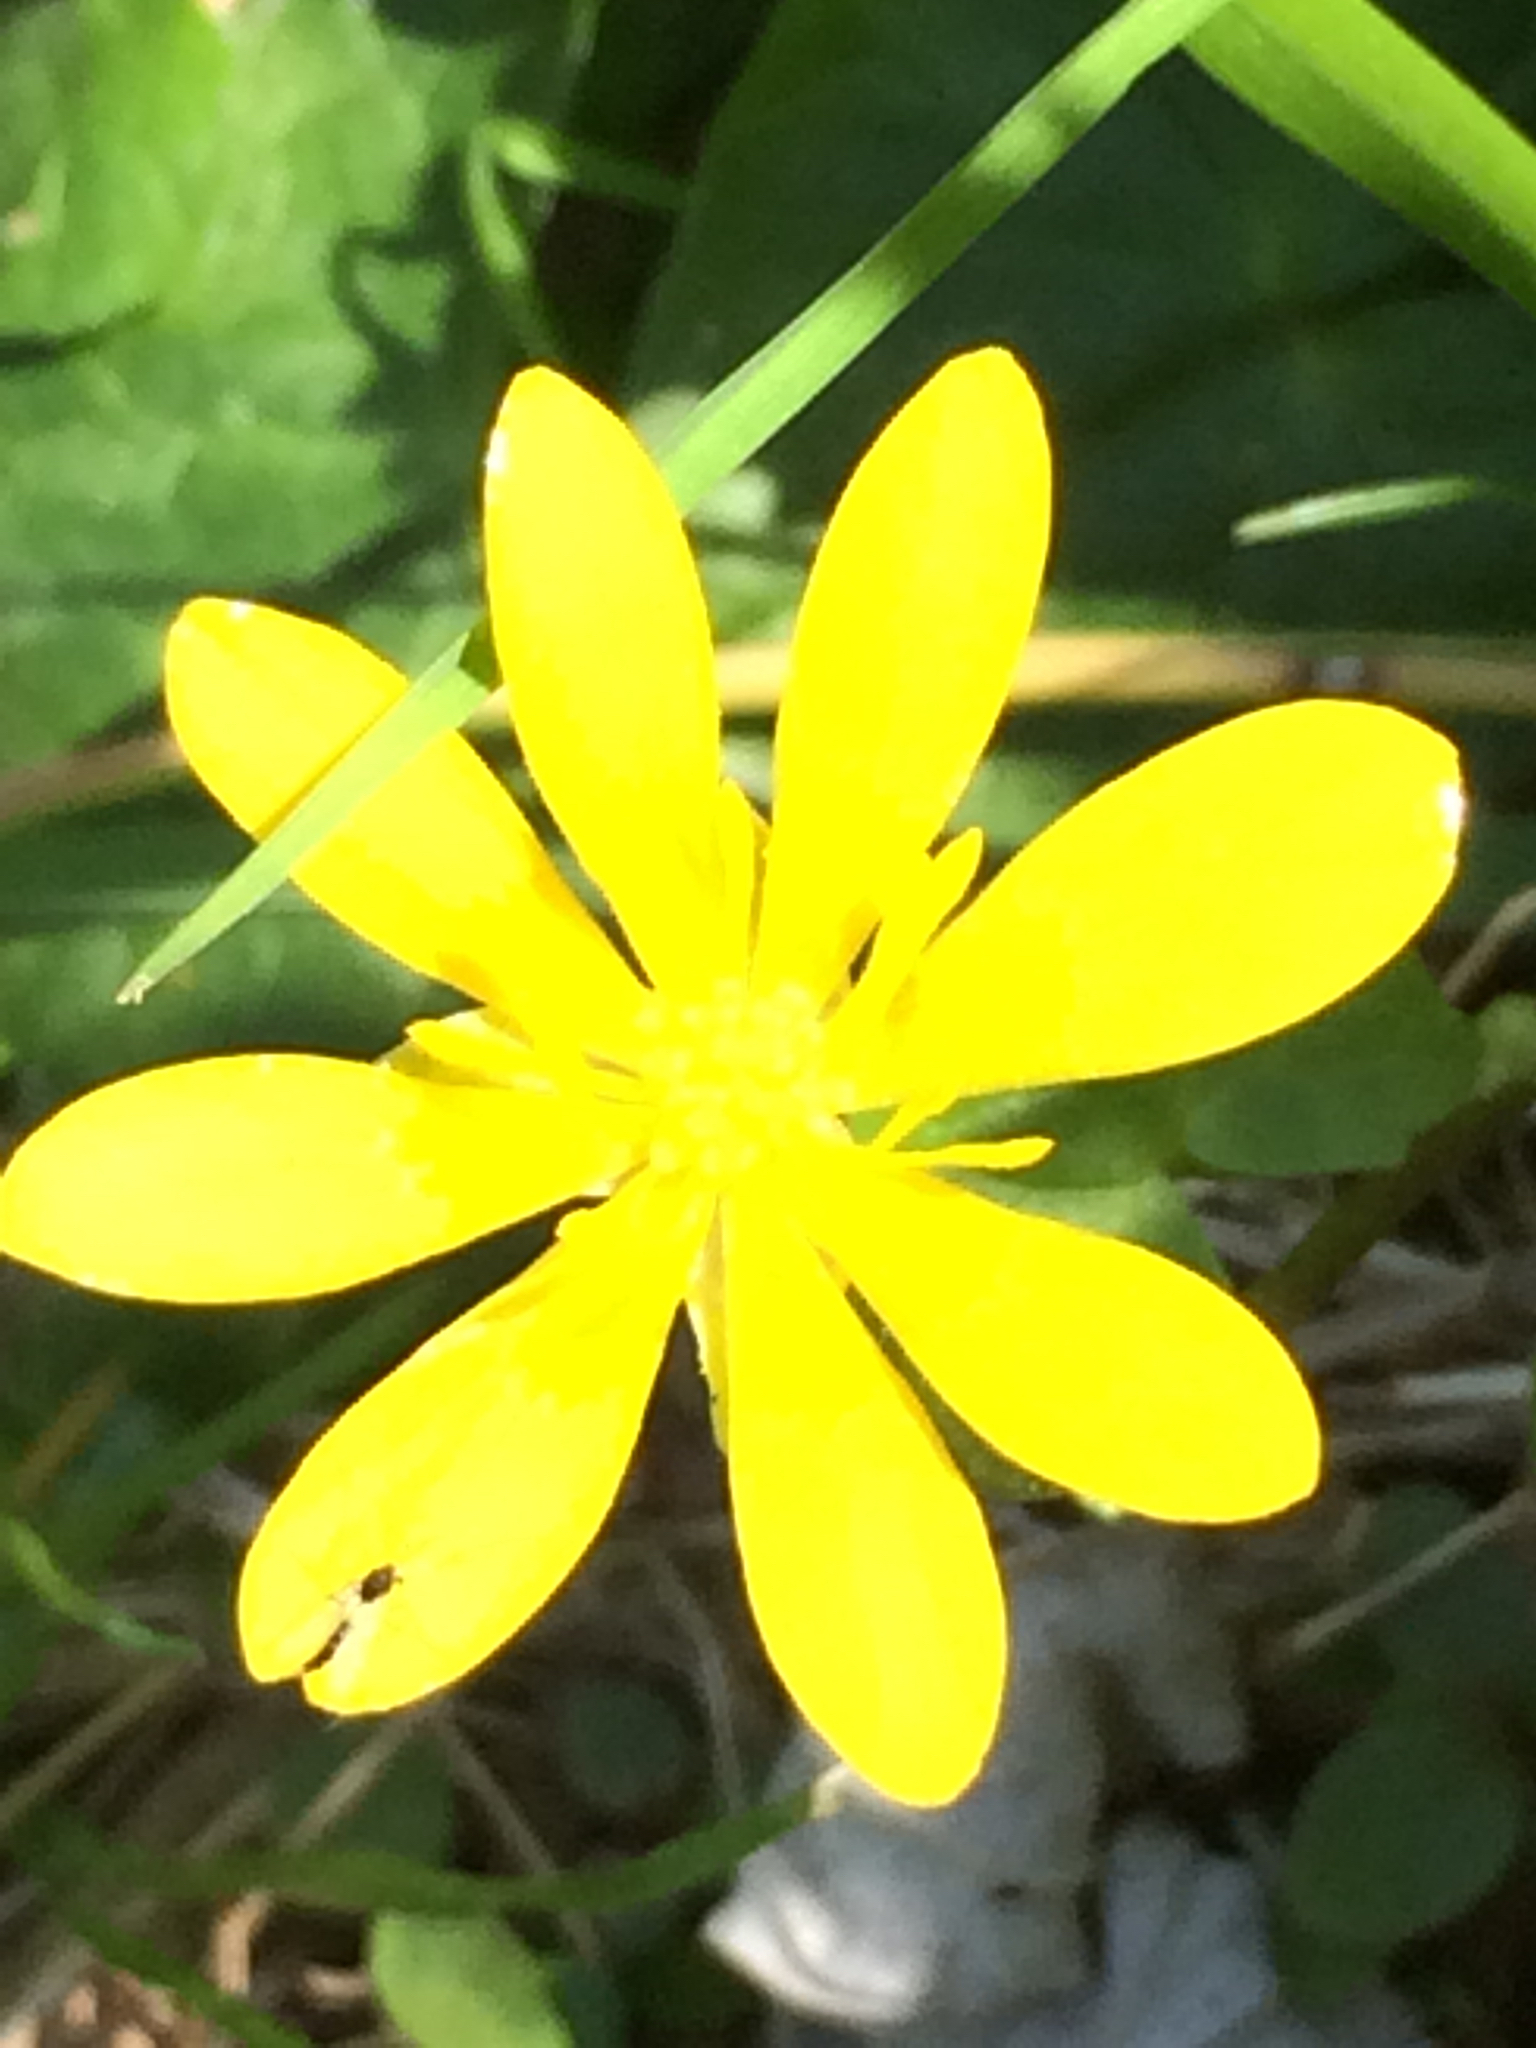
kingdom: Plantae
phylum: Tracheophyta
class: Magnoliopsida
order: Ranunculales
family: Ranunculaceae
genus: Ficaria
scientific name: Ficaria verna
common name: Lesser celandine
